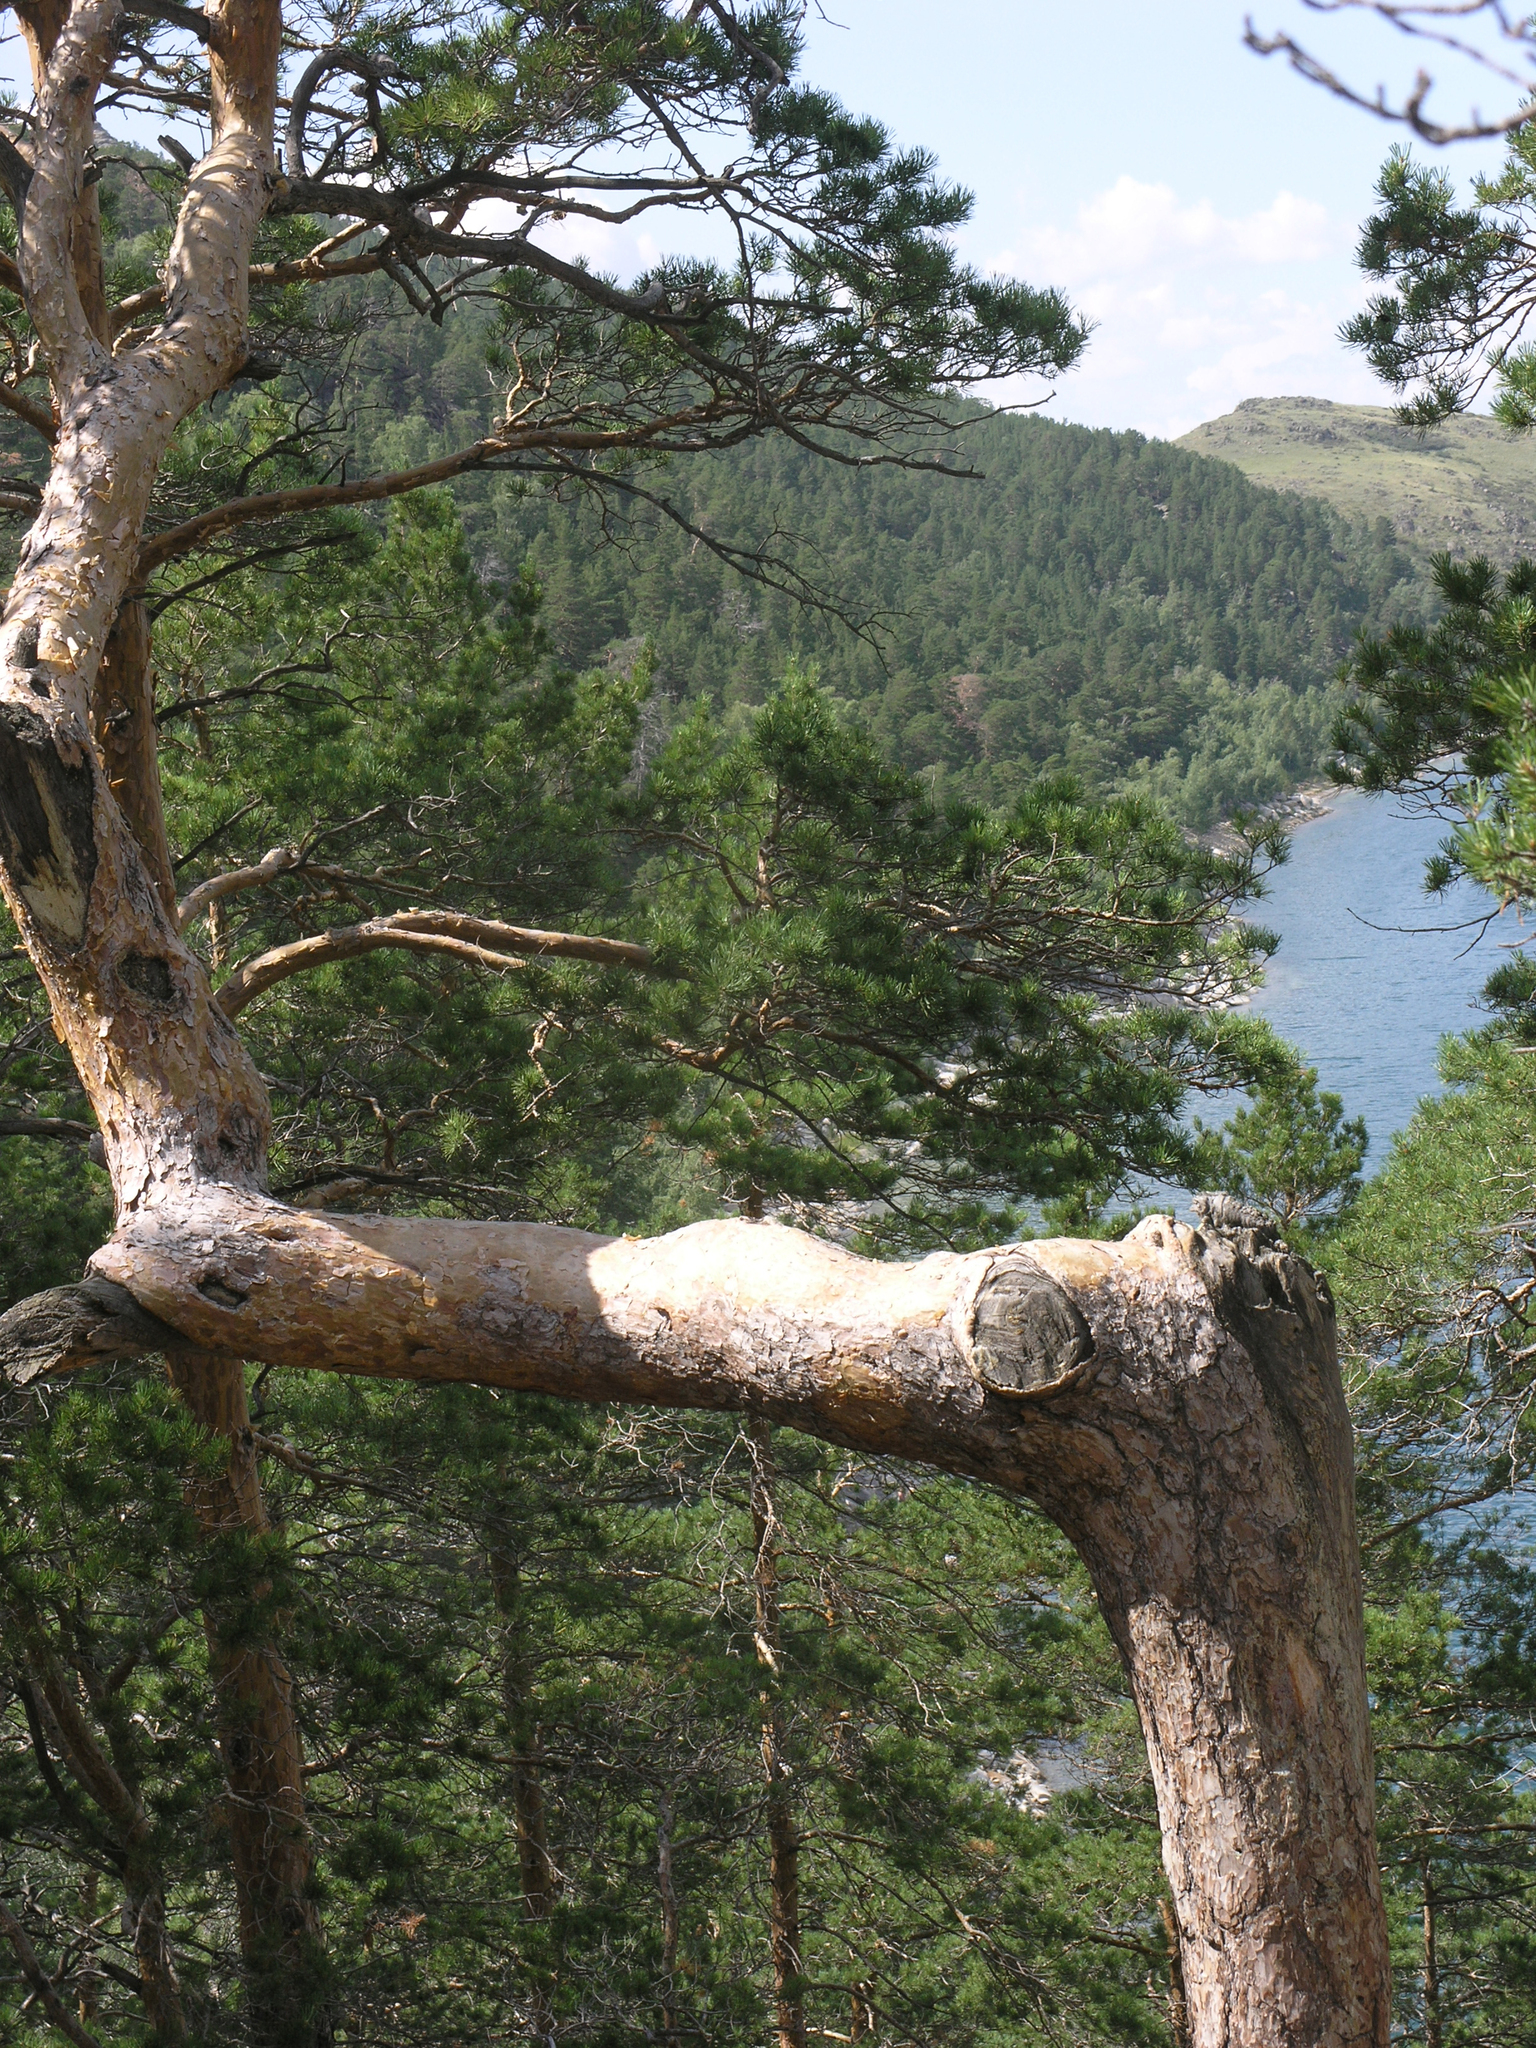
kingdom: Plantae
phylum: Tracheophyta
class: Pinopsida
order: Pinales
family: Pinaceae
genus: Pinus
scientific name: Pinus sylvestris
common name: Scots pine
